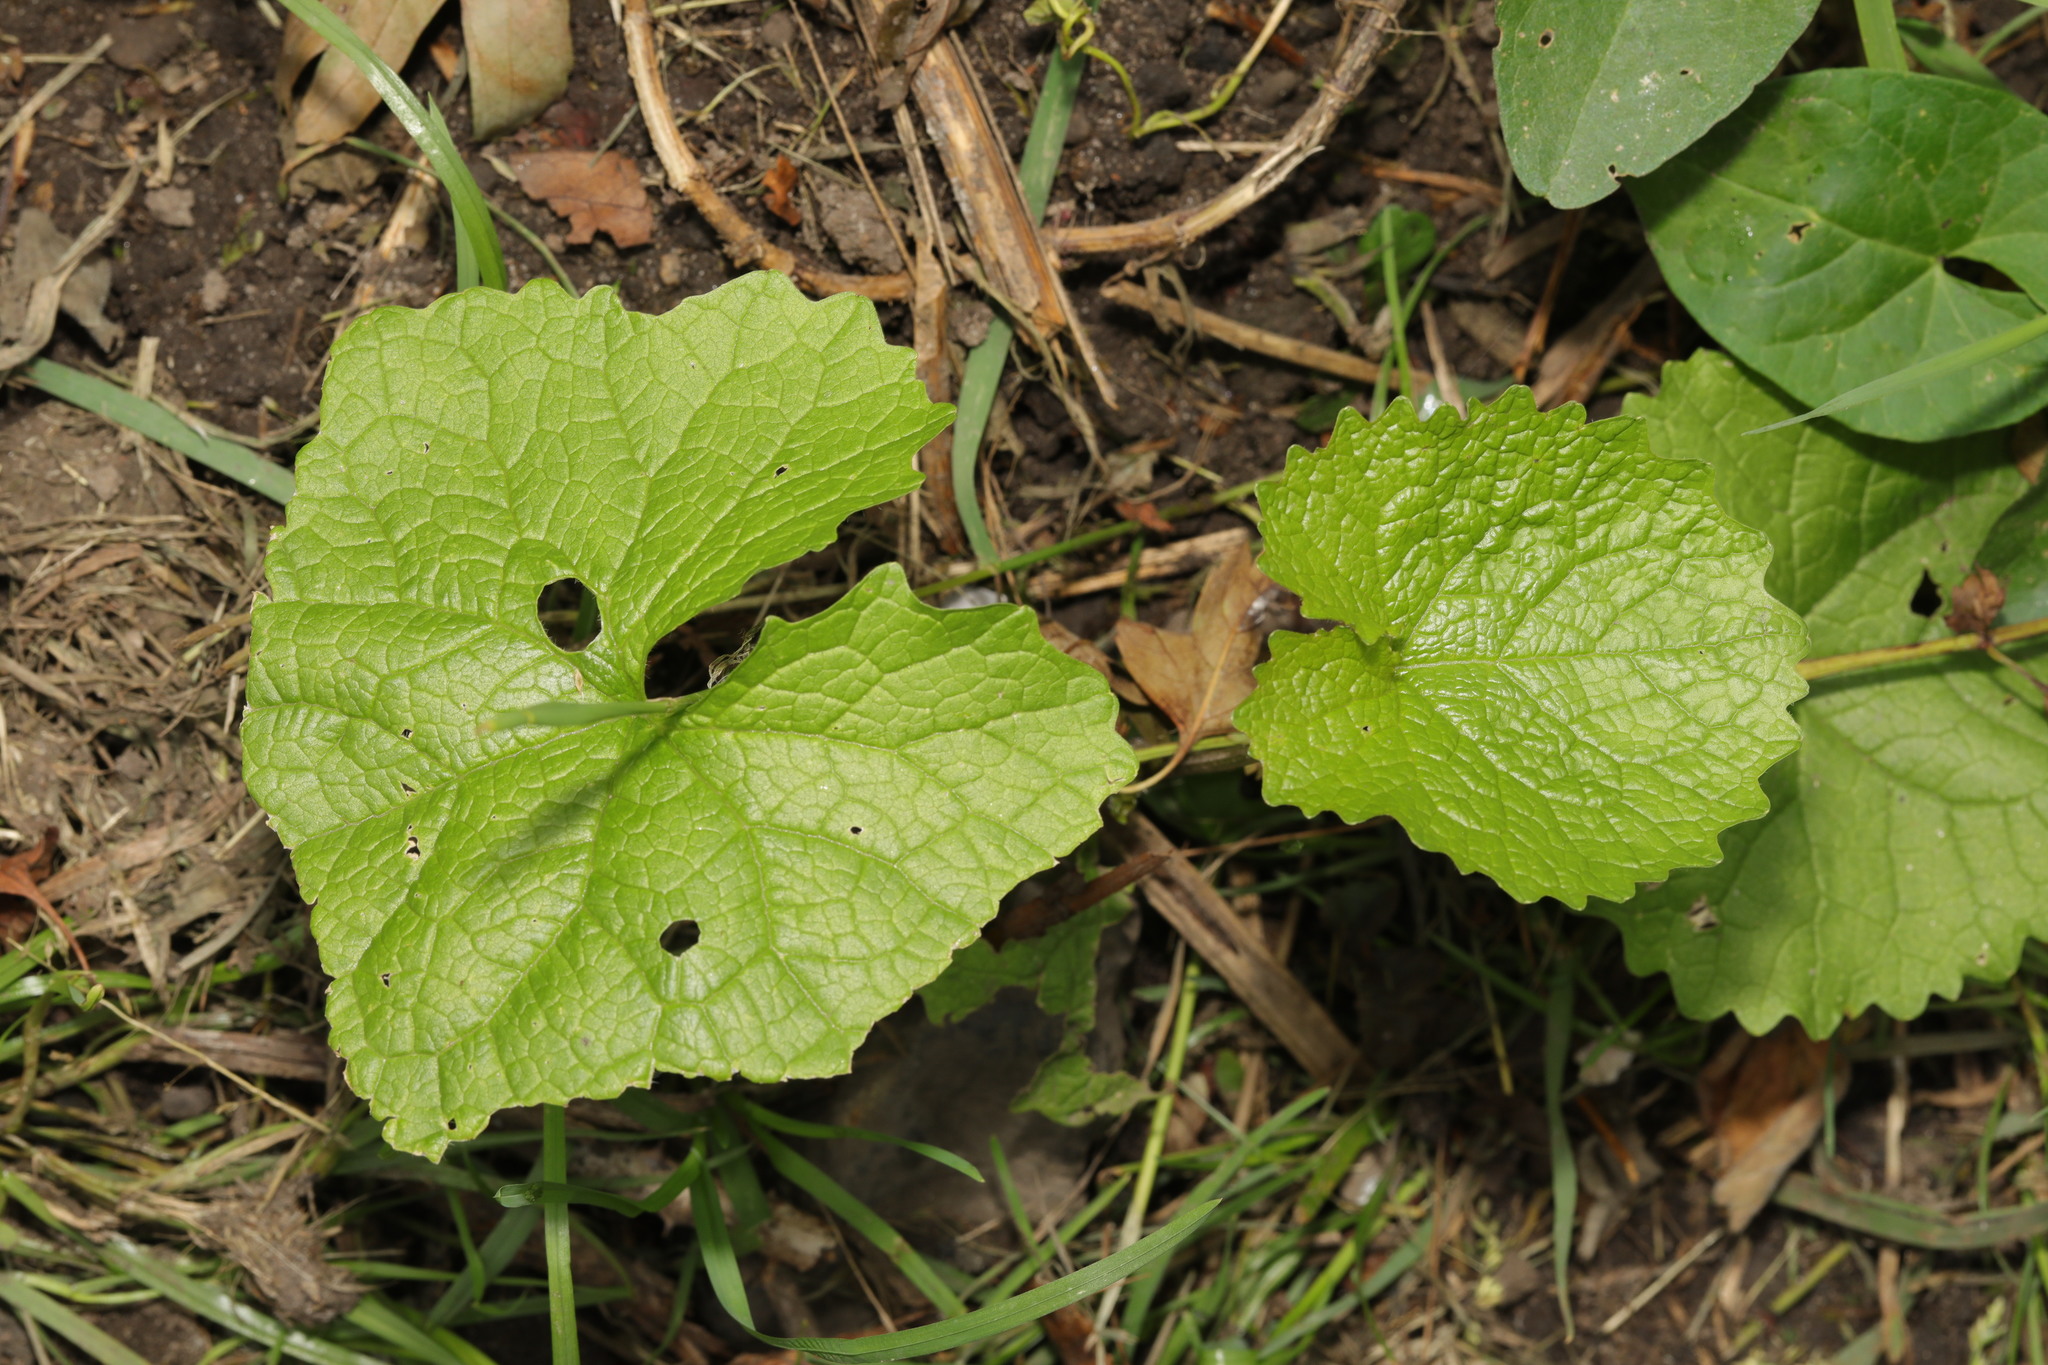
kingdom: Plantae
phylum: Tracheophyta
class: Magnoliopsida
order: Brassicales
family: Brassicaceae
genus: Alliaria
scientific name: Alliaria petiolata
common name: Garlic mustard
